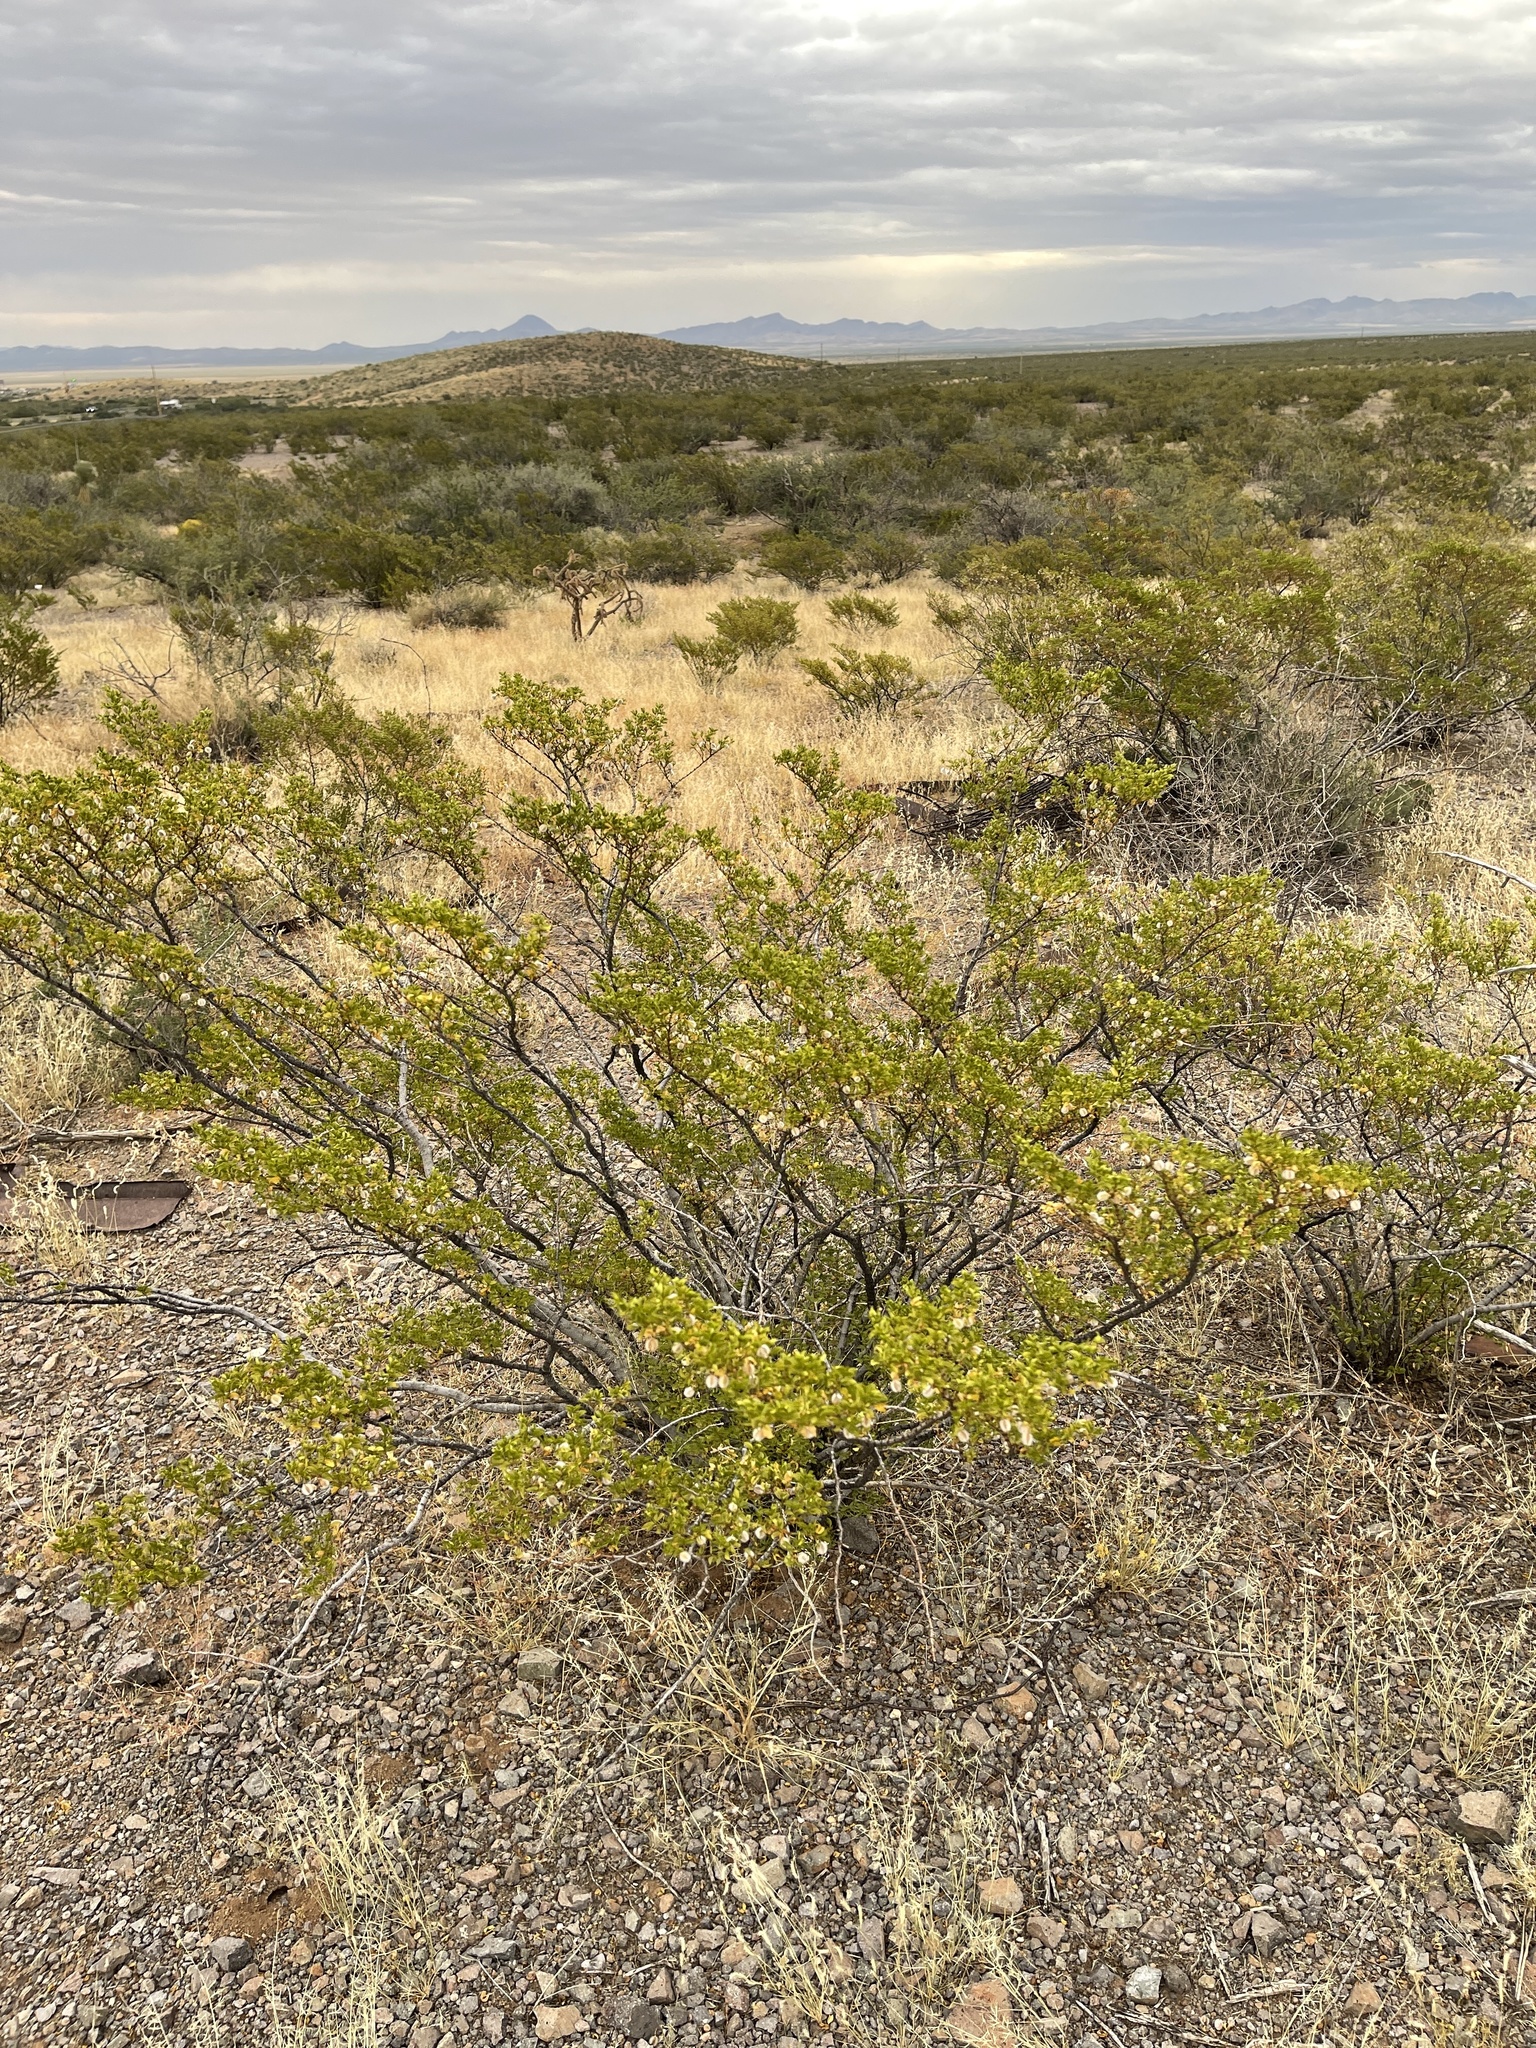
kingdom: Plantae
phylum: Tracheophyta
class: Magnoliopsida
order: Zygophyllales
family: Zygophyllaceae
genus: Larrea
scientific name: Larrea tridentata
